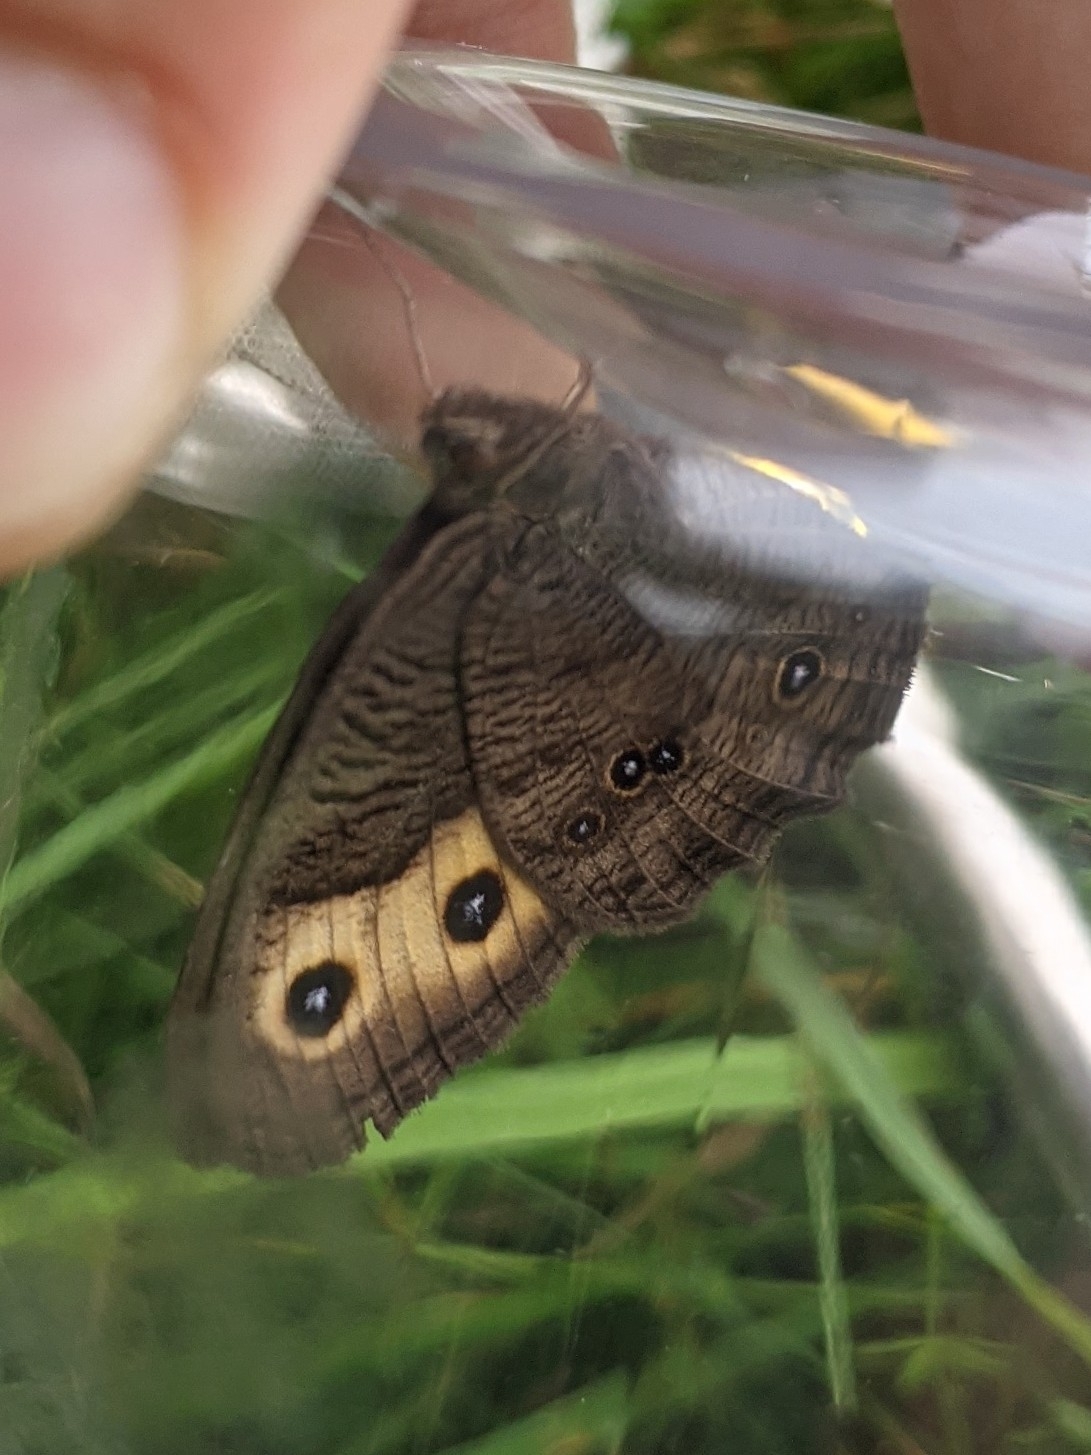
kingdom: Animalia
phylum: Arthropoda
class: Insecta
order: Lepidoptera
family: Nymphalidae
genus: Cercyonis
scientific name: Cercyonis pegala
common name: Common wood-nymph
